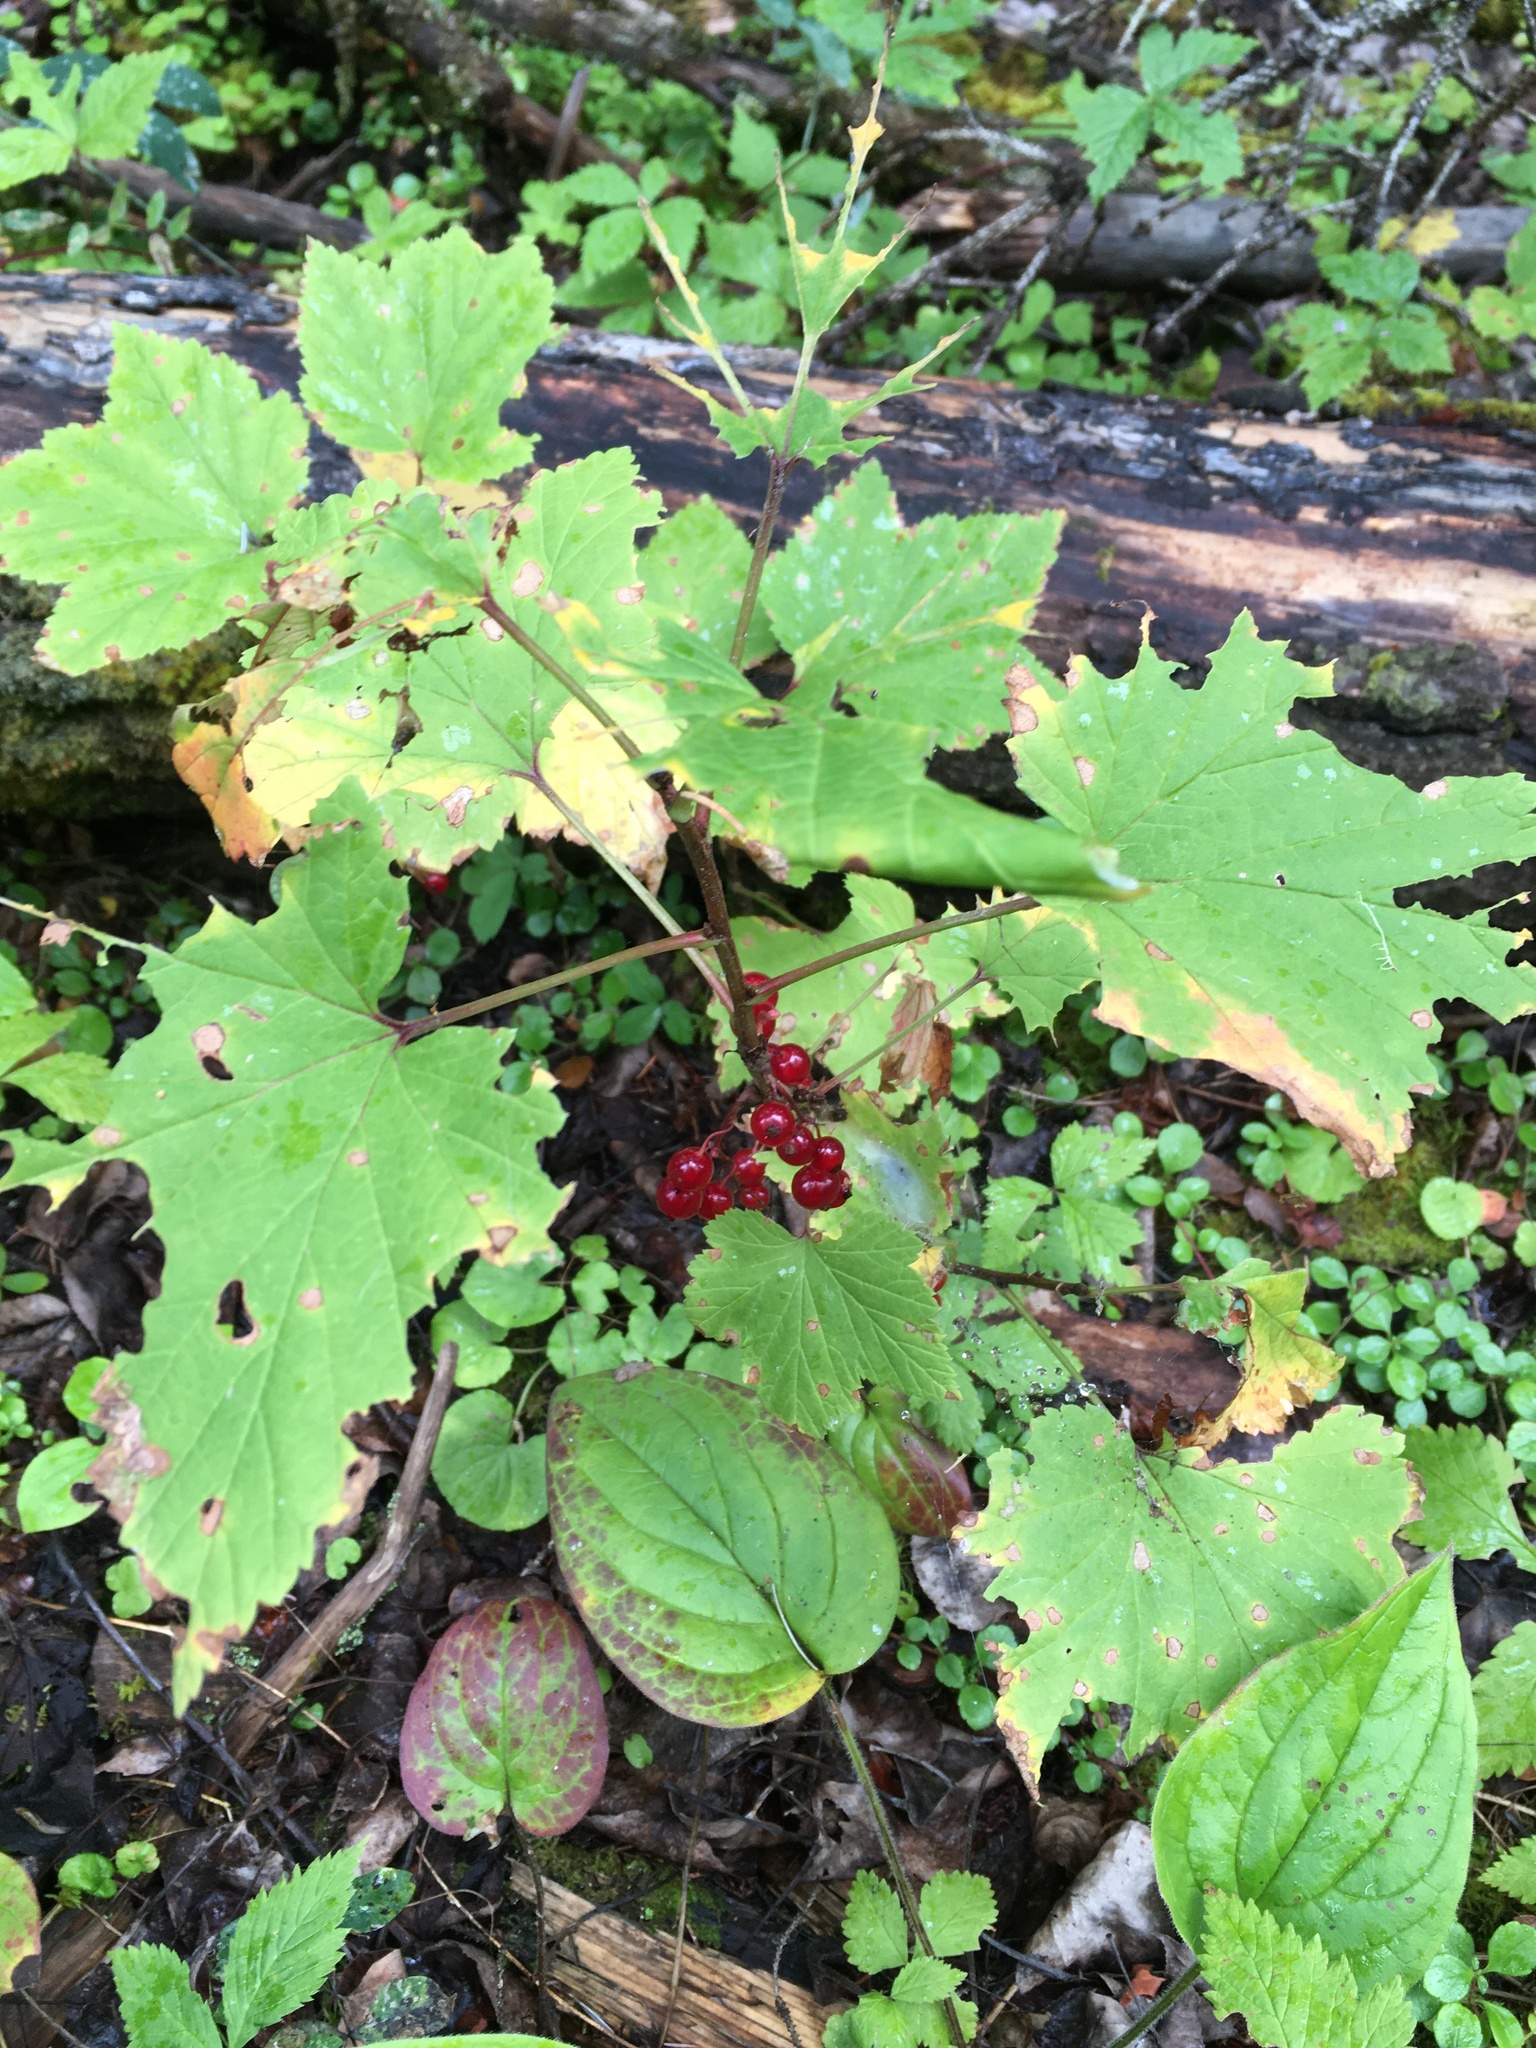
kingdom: Plantae
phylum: Tracheophyta
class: Magnoliopsida
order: Saxifragales
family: Grossulariaceae
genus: Ribes
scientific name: Ribes triste
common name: Swamp red currant
